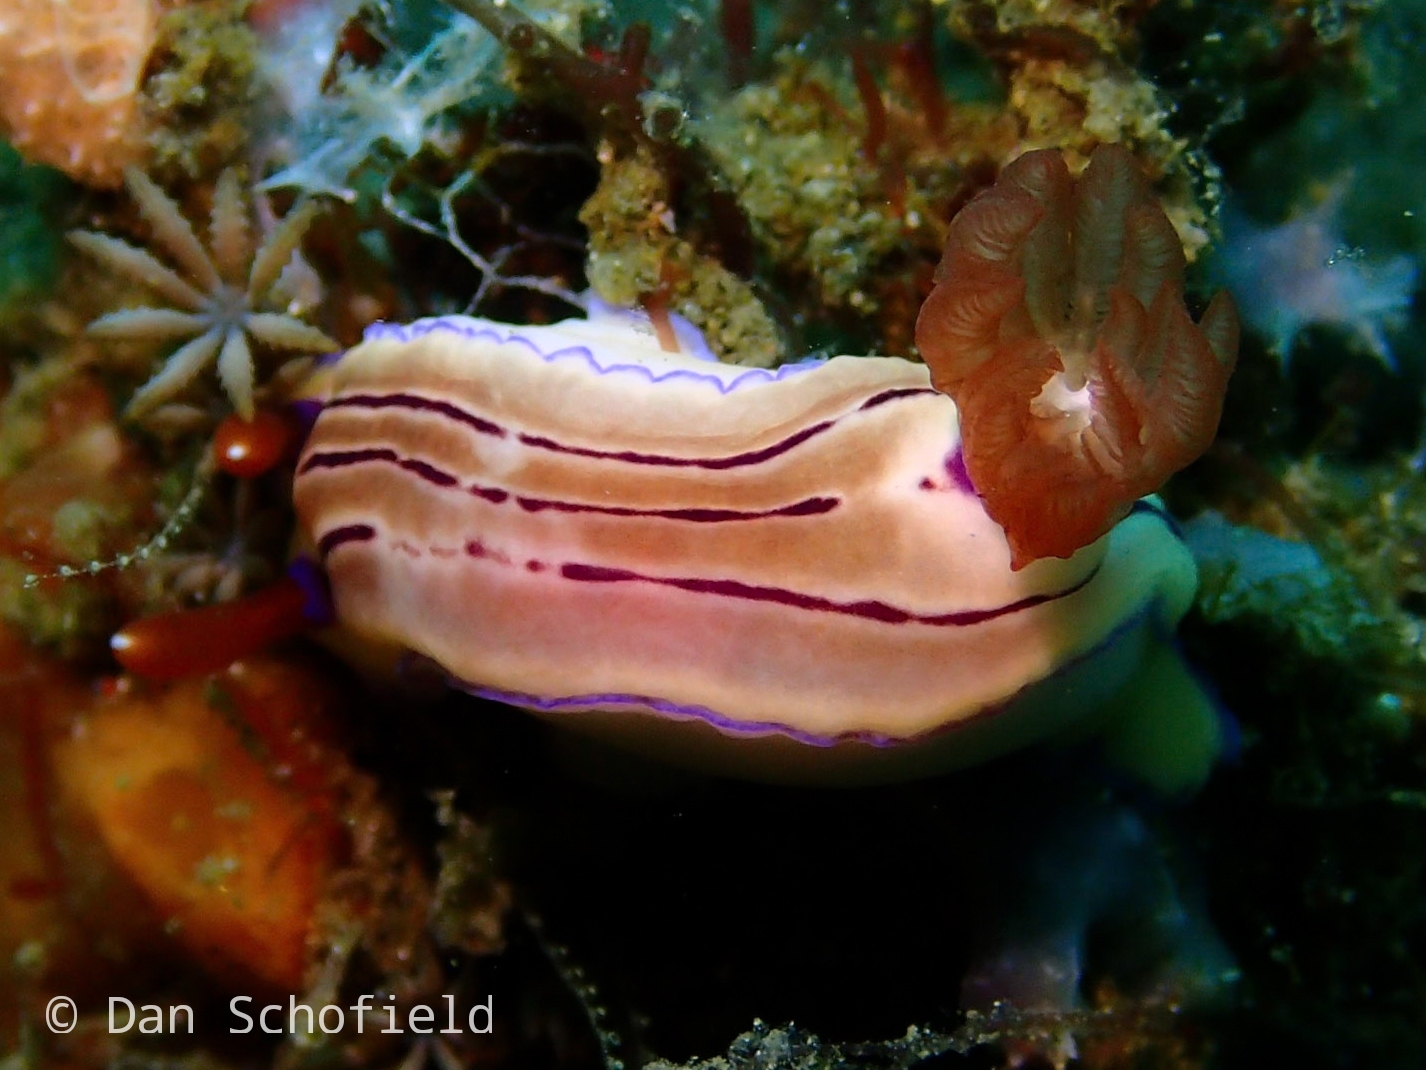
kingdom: Animalia
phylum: Mollusca
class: Gastropoda
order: Nudibranchia
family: Chromodorididae
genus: Hypselodoris
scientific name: Hypselodoris emma
